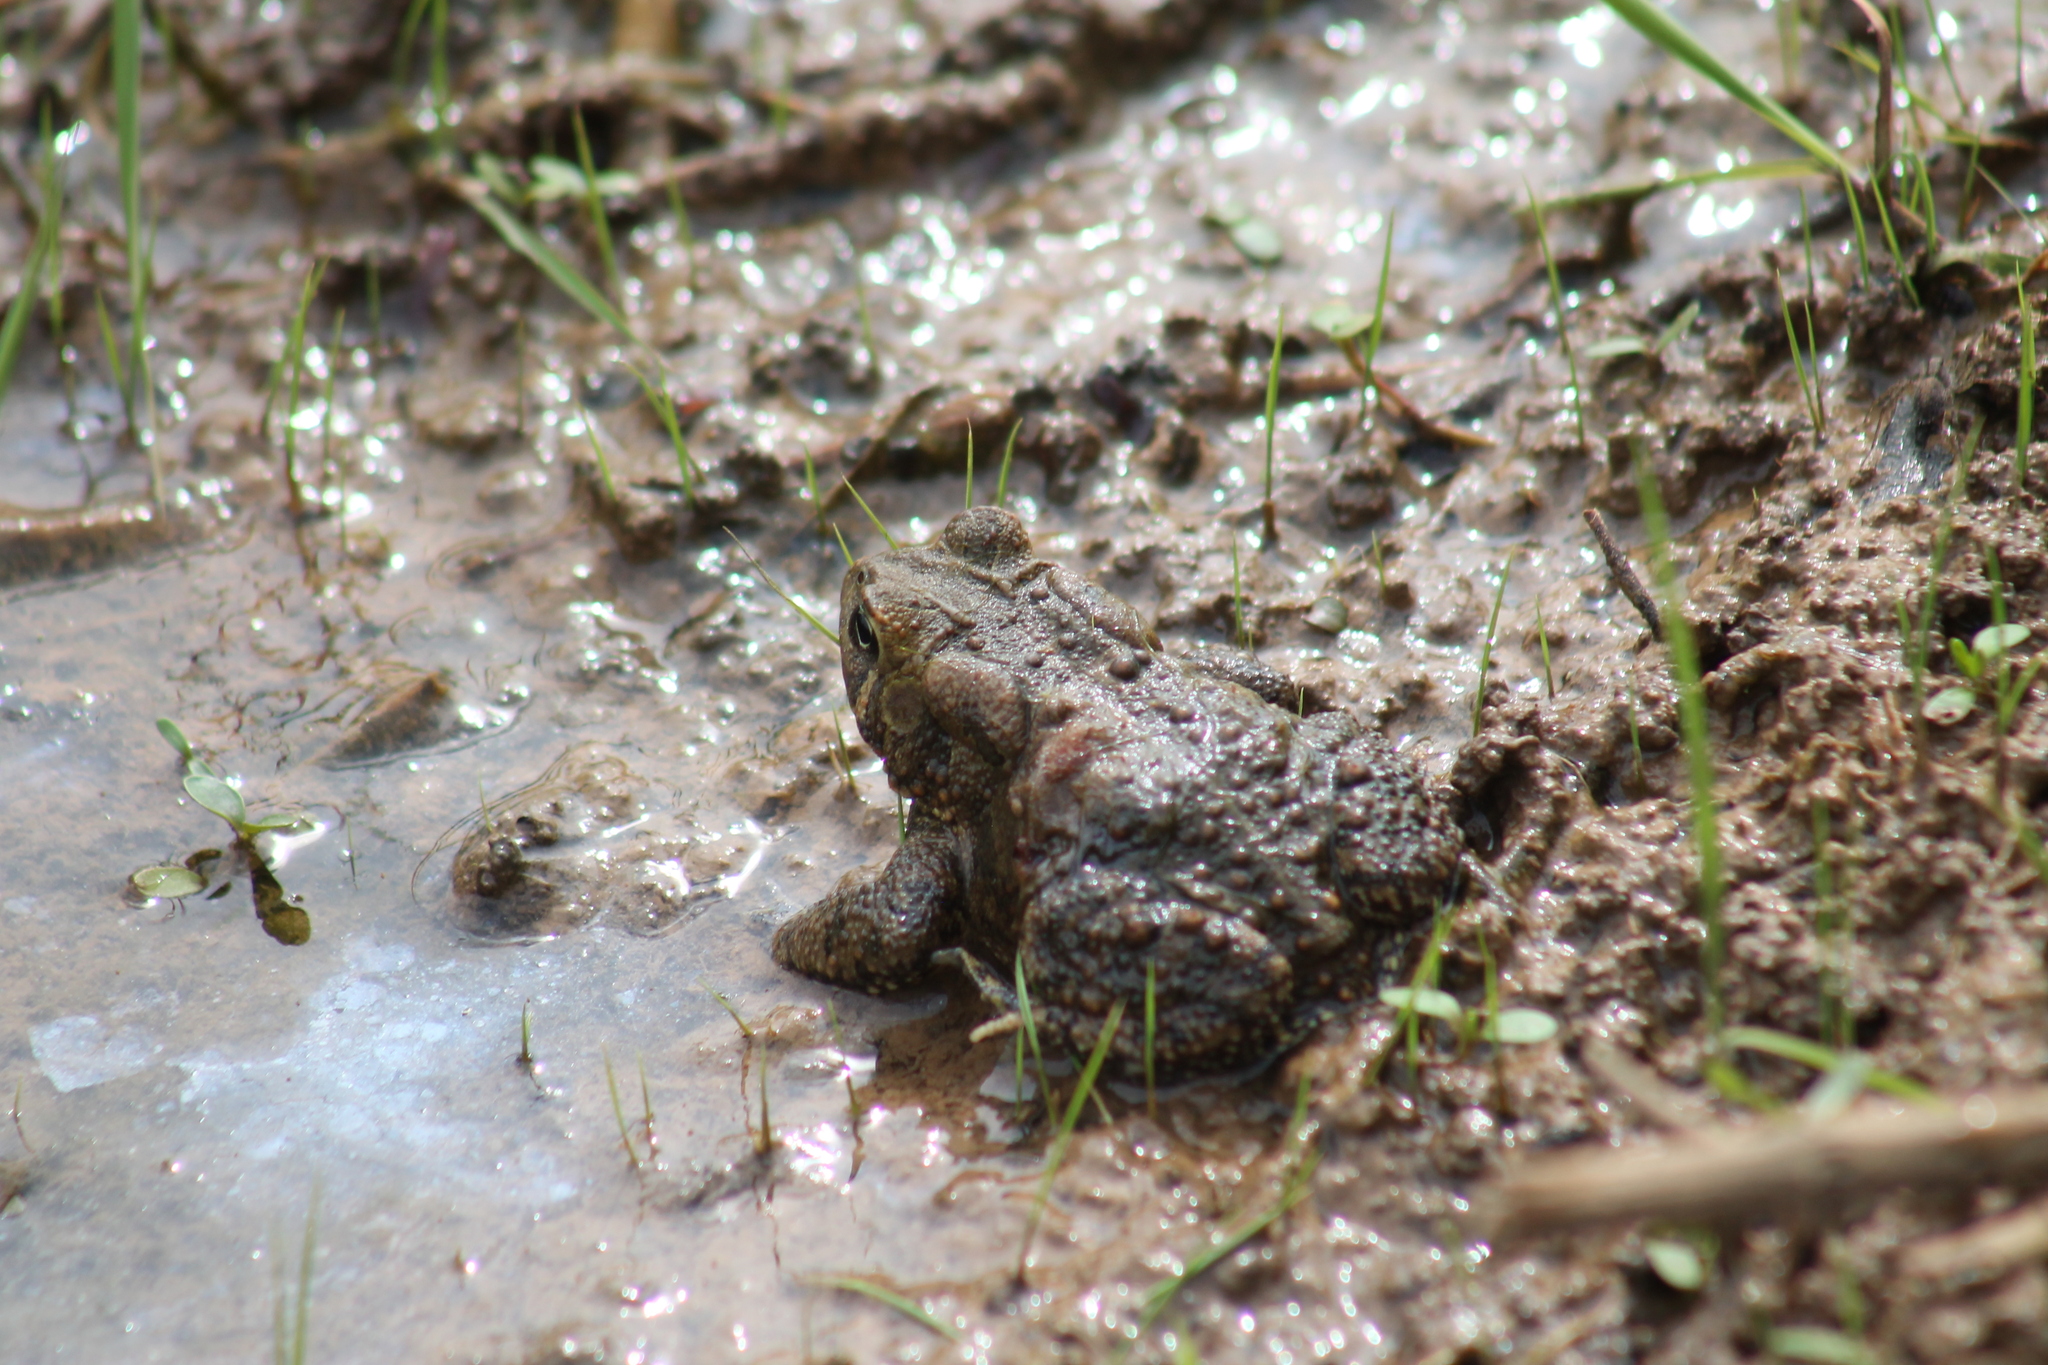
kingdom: Animalia
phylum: Chordata
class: Amphibia
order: Anura
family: Bufonidae
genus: Anaxyrus
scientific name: Anaxyrus americanus
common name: American toad
